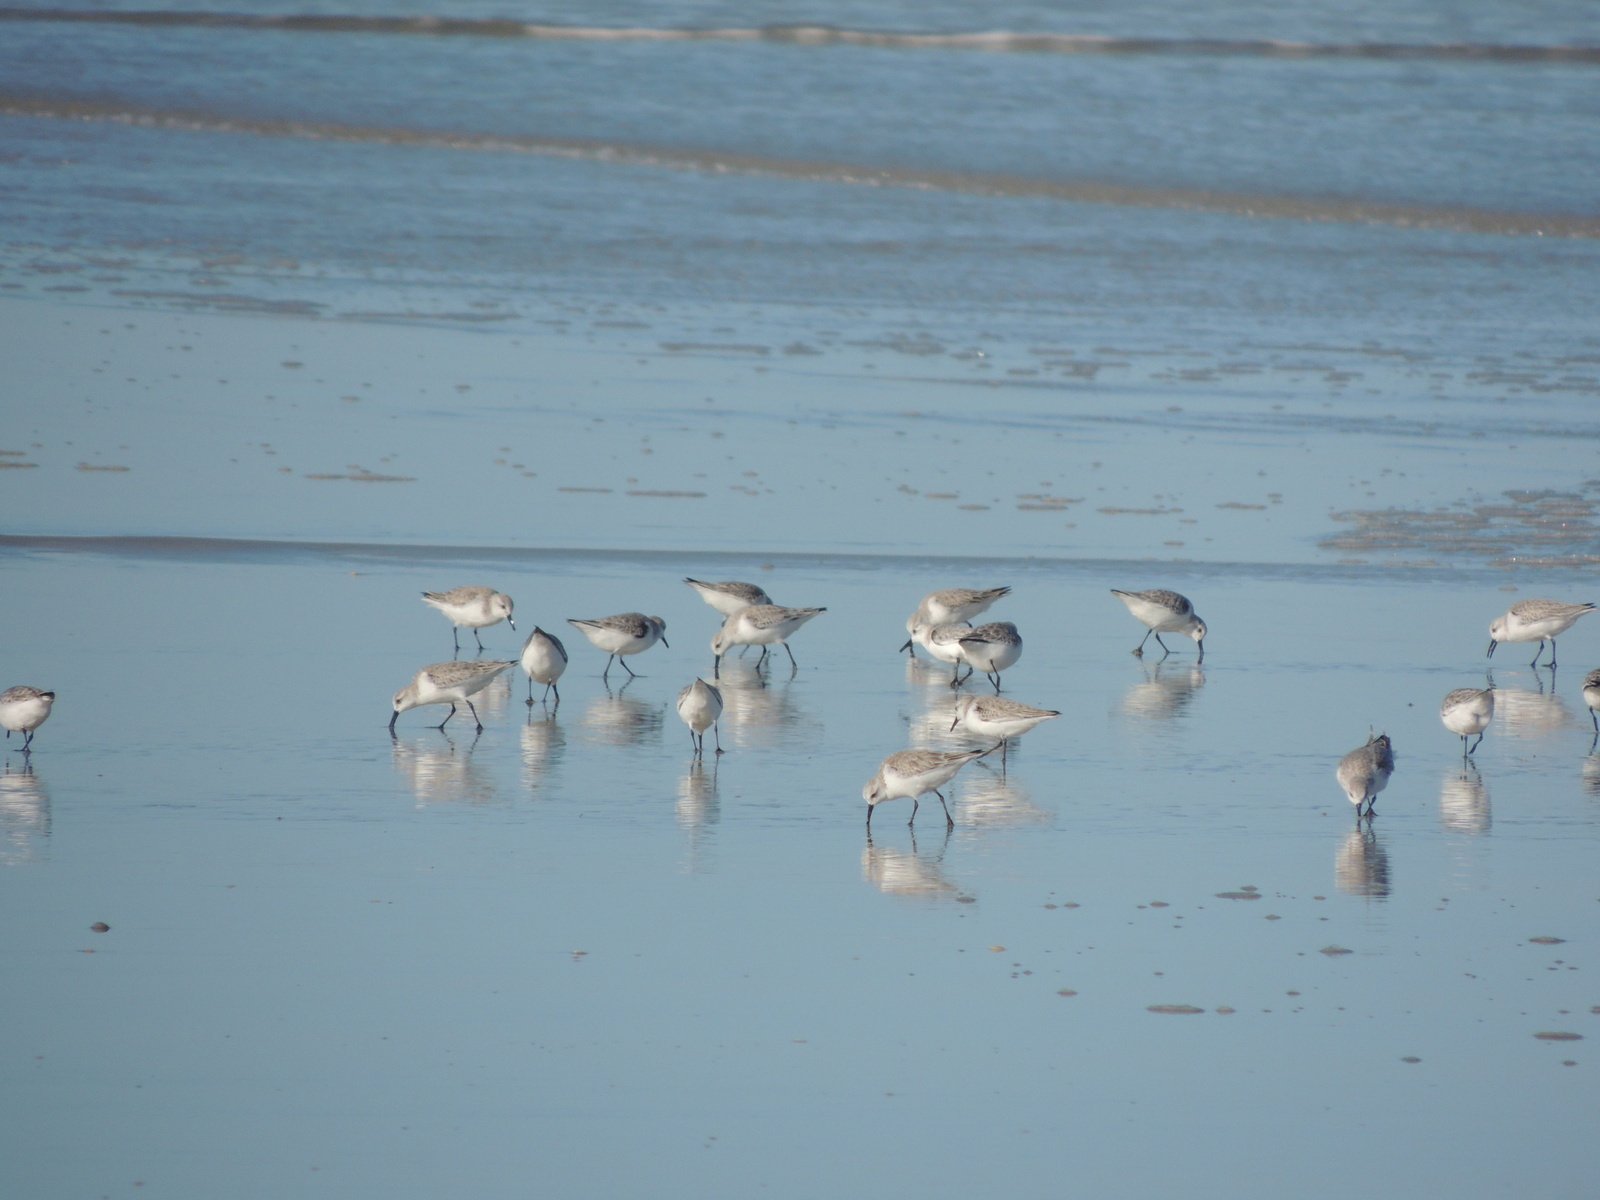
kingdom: Animalia
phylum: Chordata
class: Aves
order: Charadriiformes
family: Scolopacidae
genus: Calidris
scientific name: Calidris alba
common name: Sanderling
